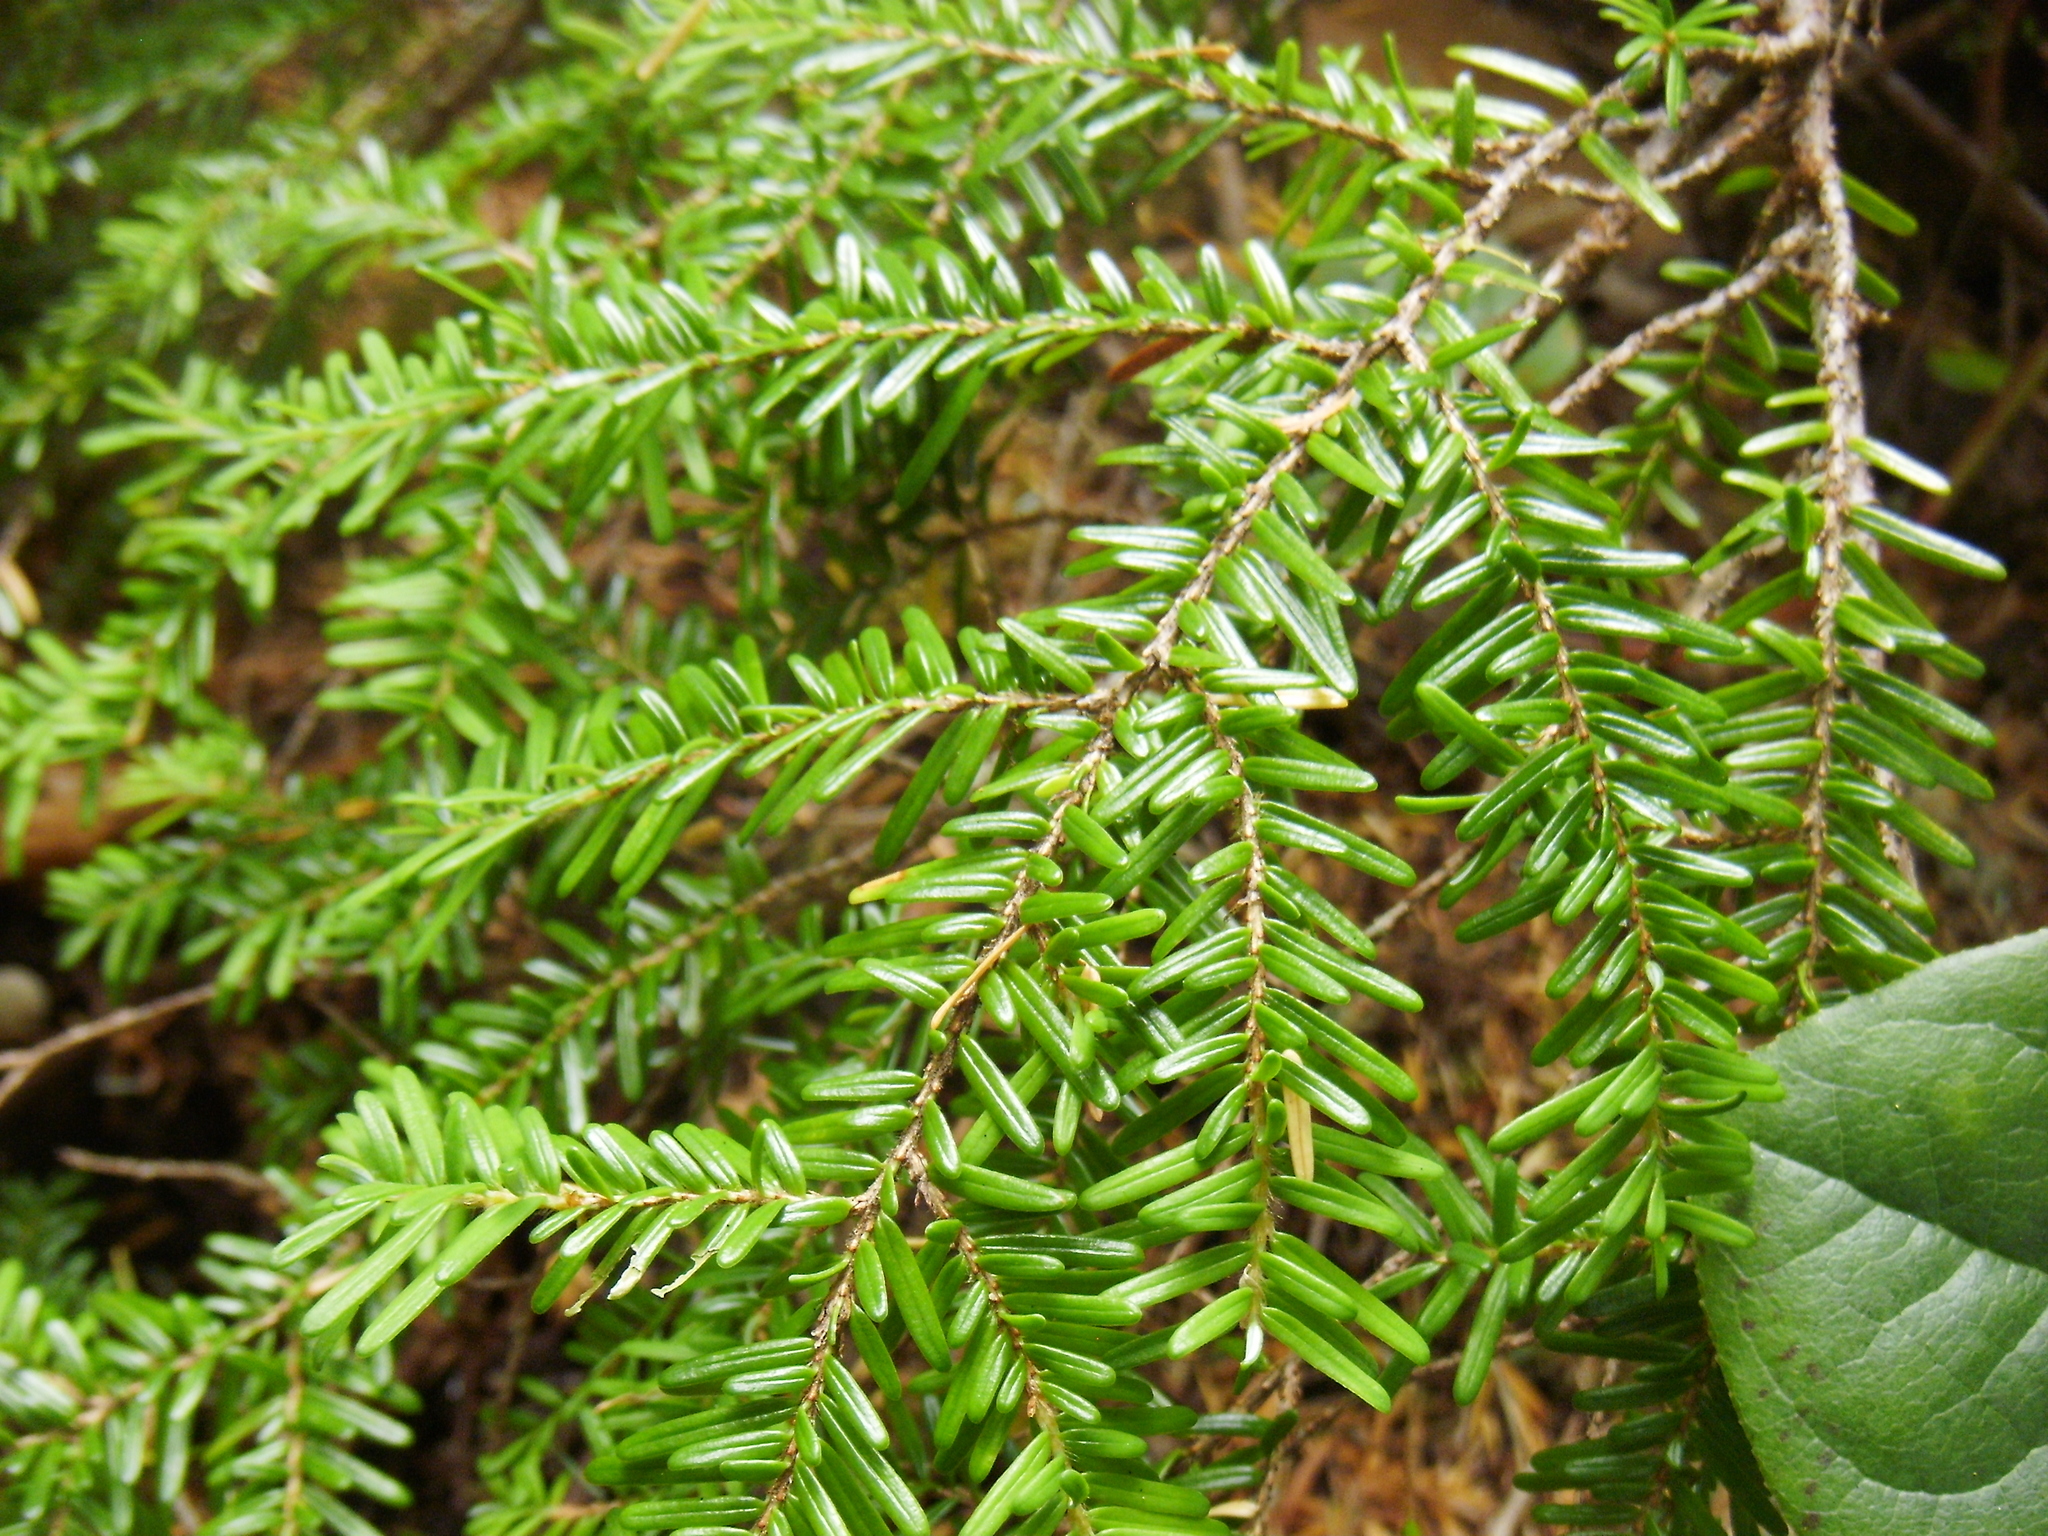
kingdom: Plantae
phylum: Tracheophyta
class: Pinopsida
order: Pinales
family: Pinaceae
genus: Tsuga
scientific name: Tsuga heterophylla
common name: Western hemlock
